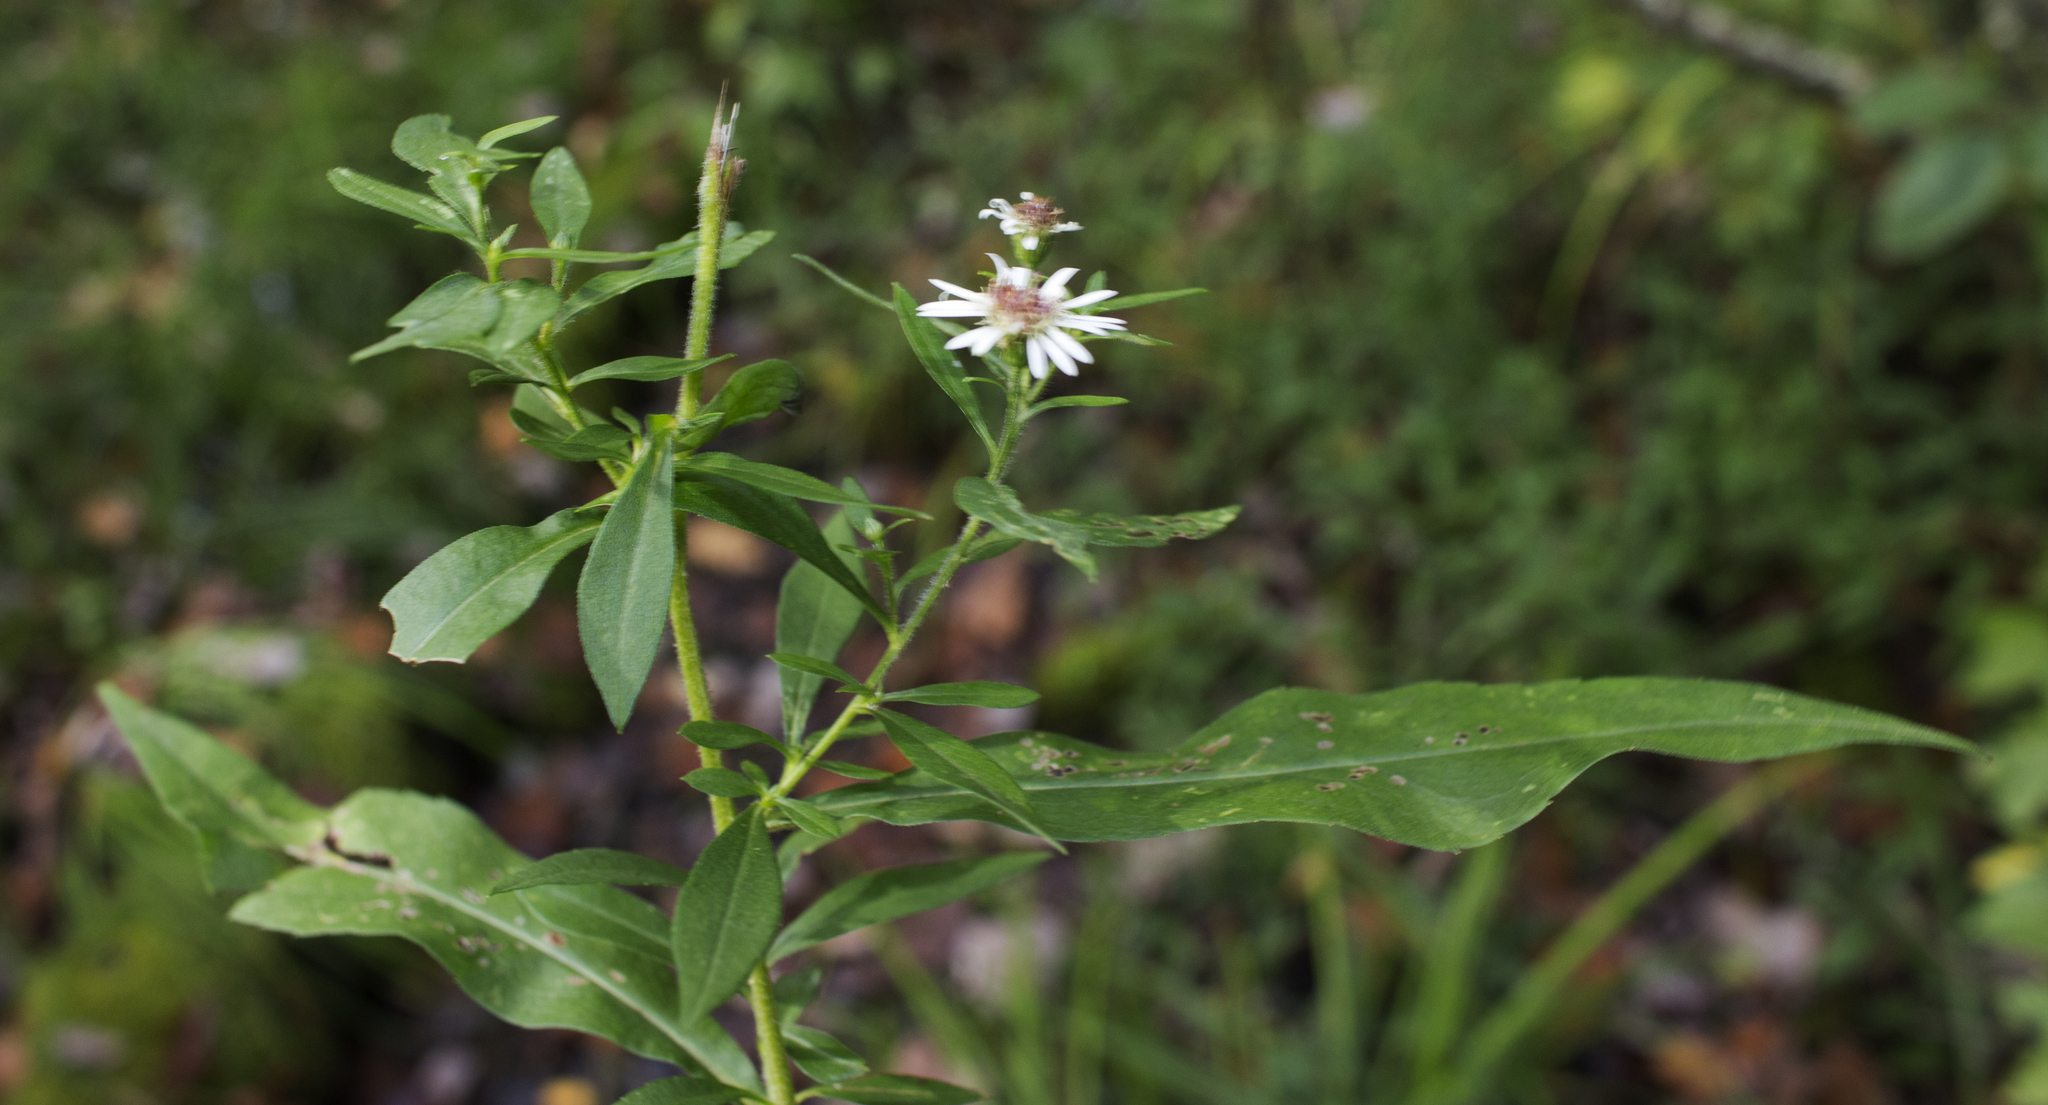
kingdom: Plantae
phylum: Tracheophyta
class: Magnoliopsida
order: Asterales
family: Asteraceae
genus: Symphyotrichum
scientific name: Symphyotrichum ontarionis
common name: Bottomland aster
